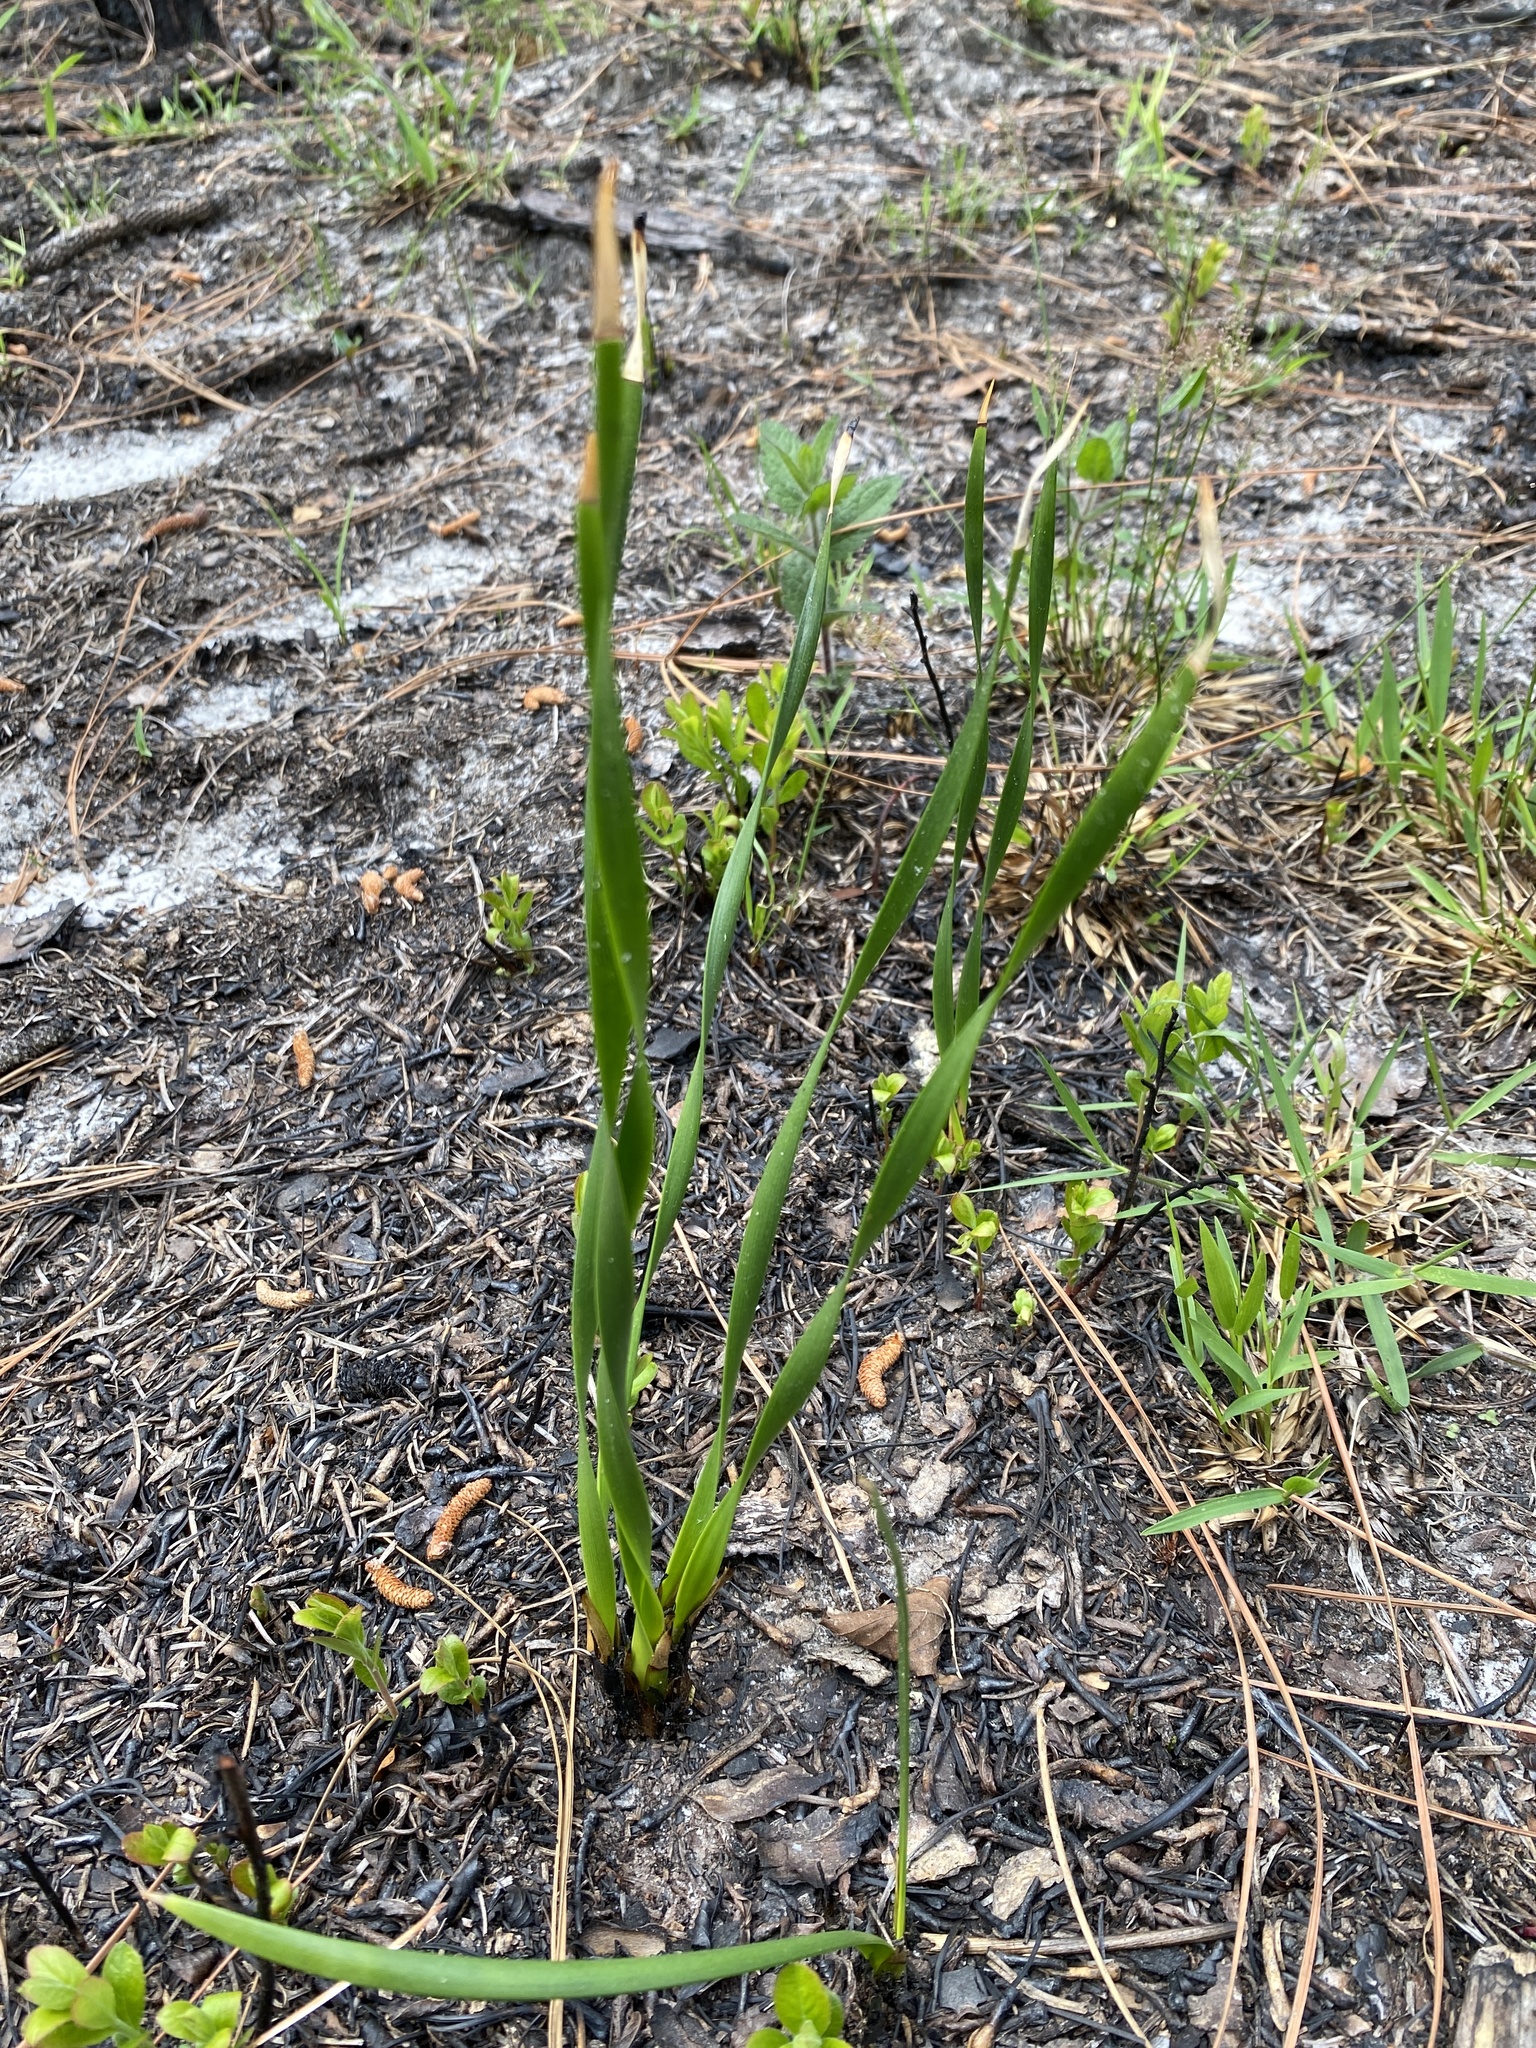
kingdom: Plantae
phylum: Tracheophyta
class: Liliopsida
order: Poales
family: Xyridaceae
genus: Xyris
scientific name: Xyris caroliniana
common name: Carolina yellow-eyed-grass
